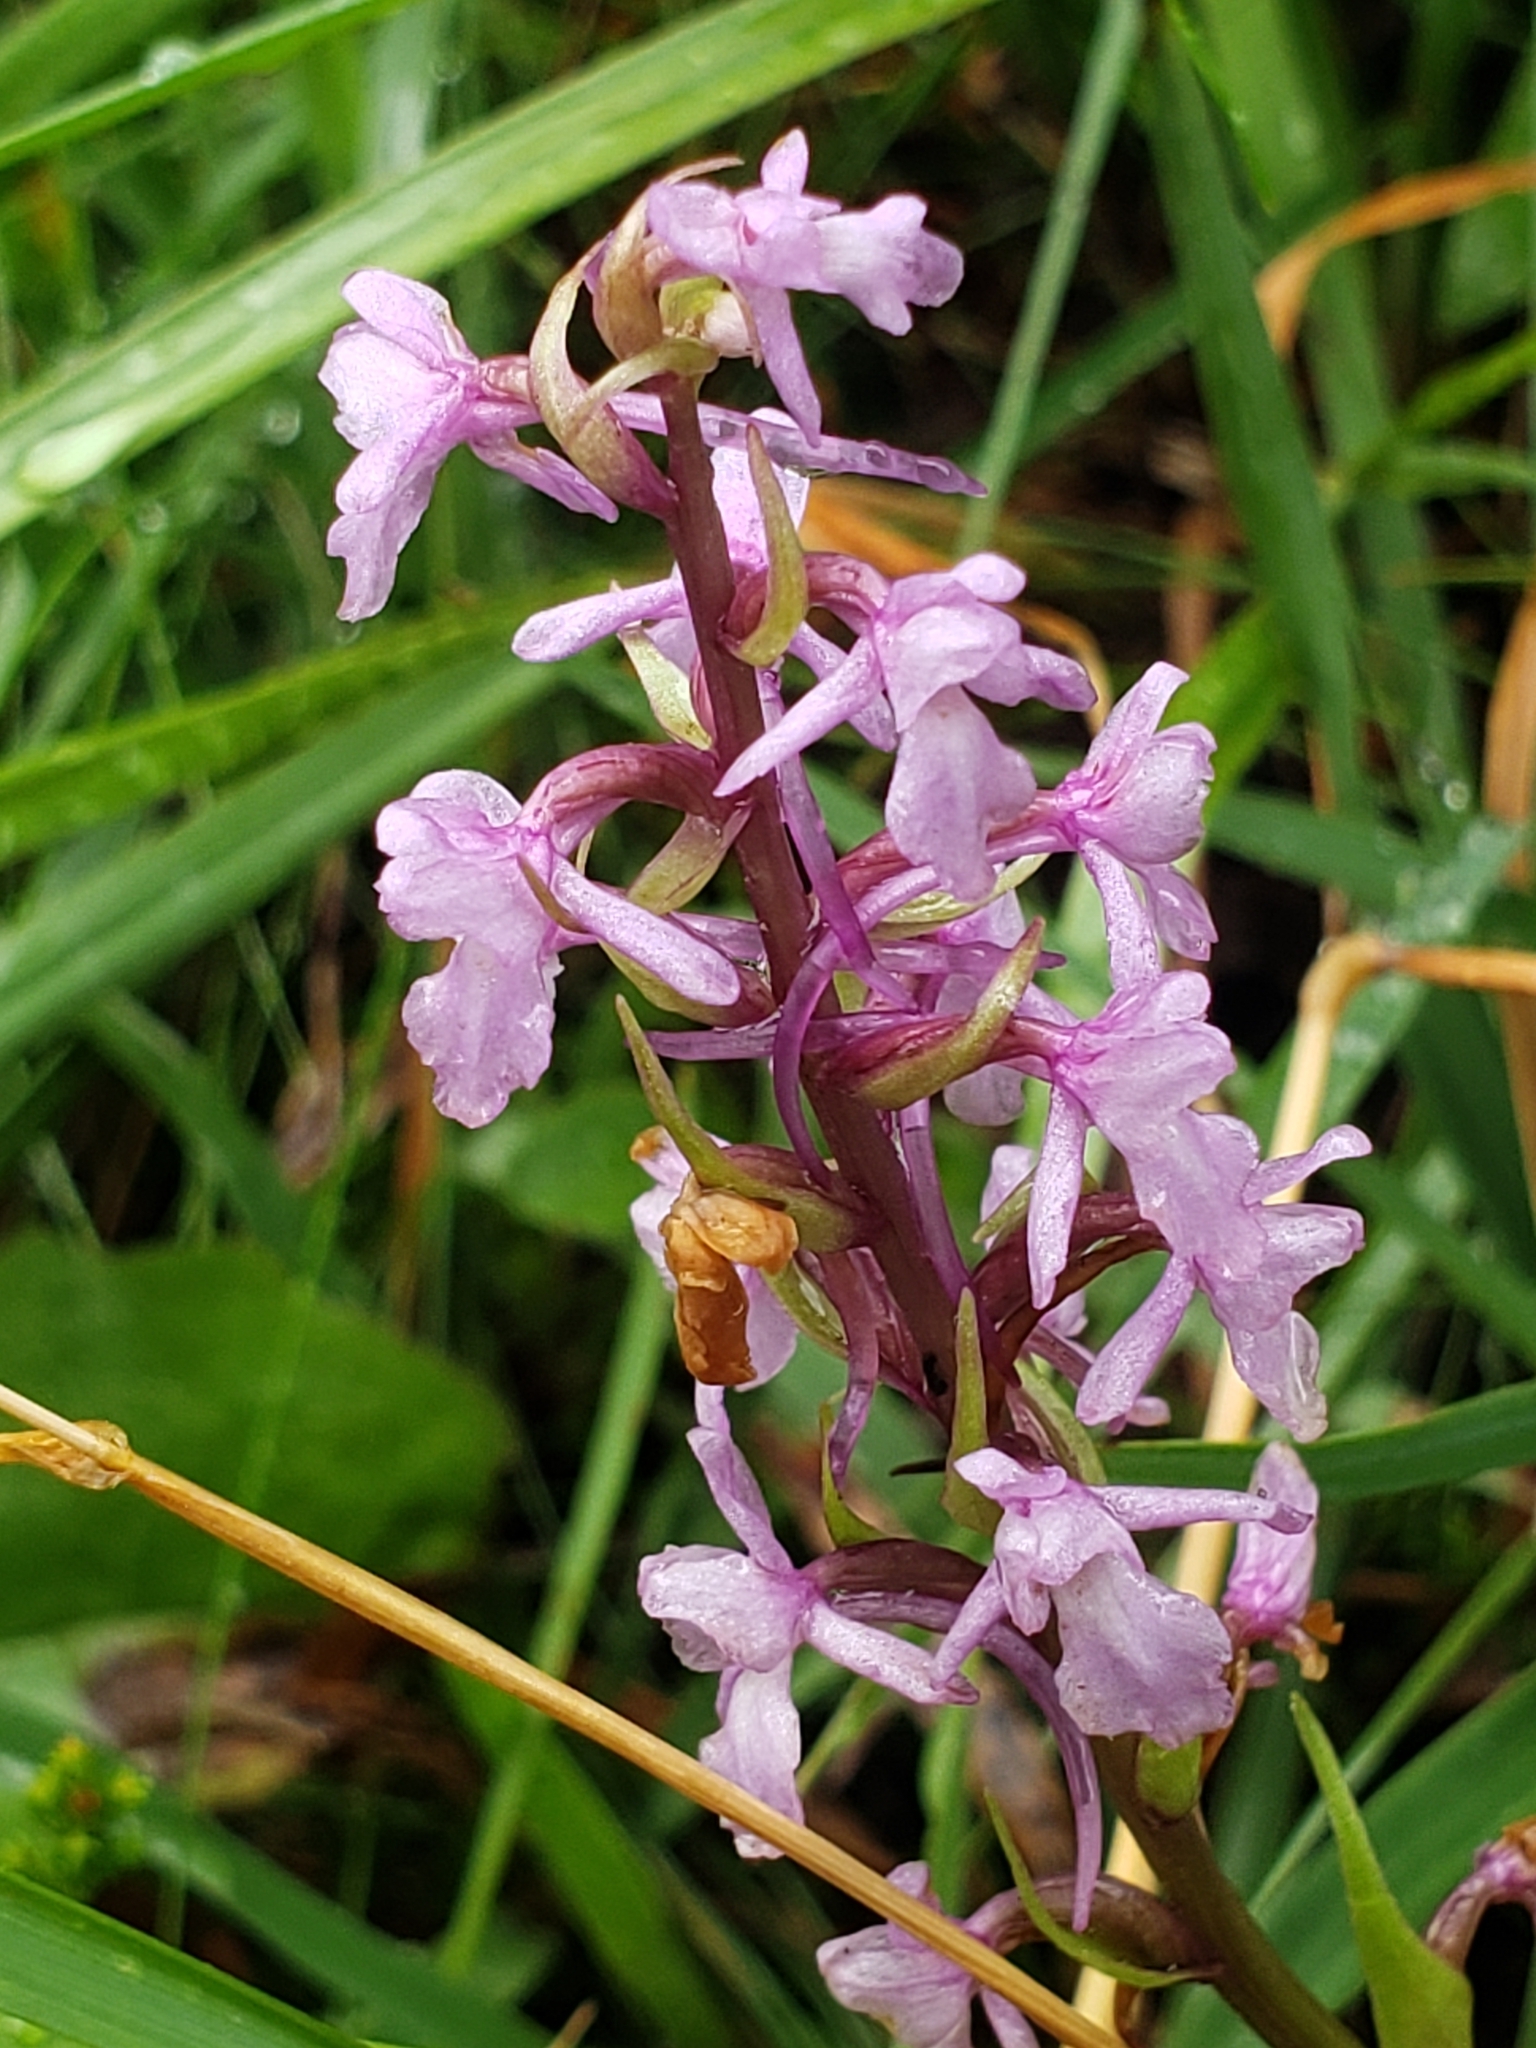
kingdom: Plantae
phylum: Tracheophyta
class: Liliopsida
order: Asparagales
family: Orchidaceae
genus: Gymnadenia
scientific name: Gymnadenia conopsea
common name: Fragrant orchid
